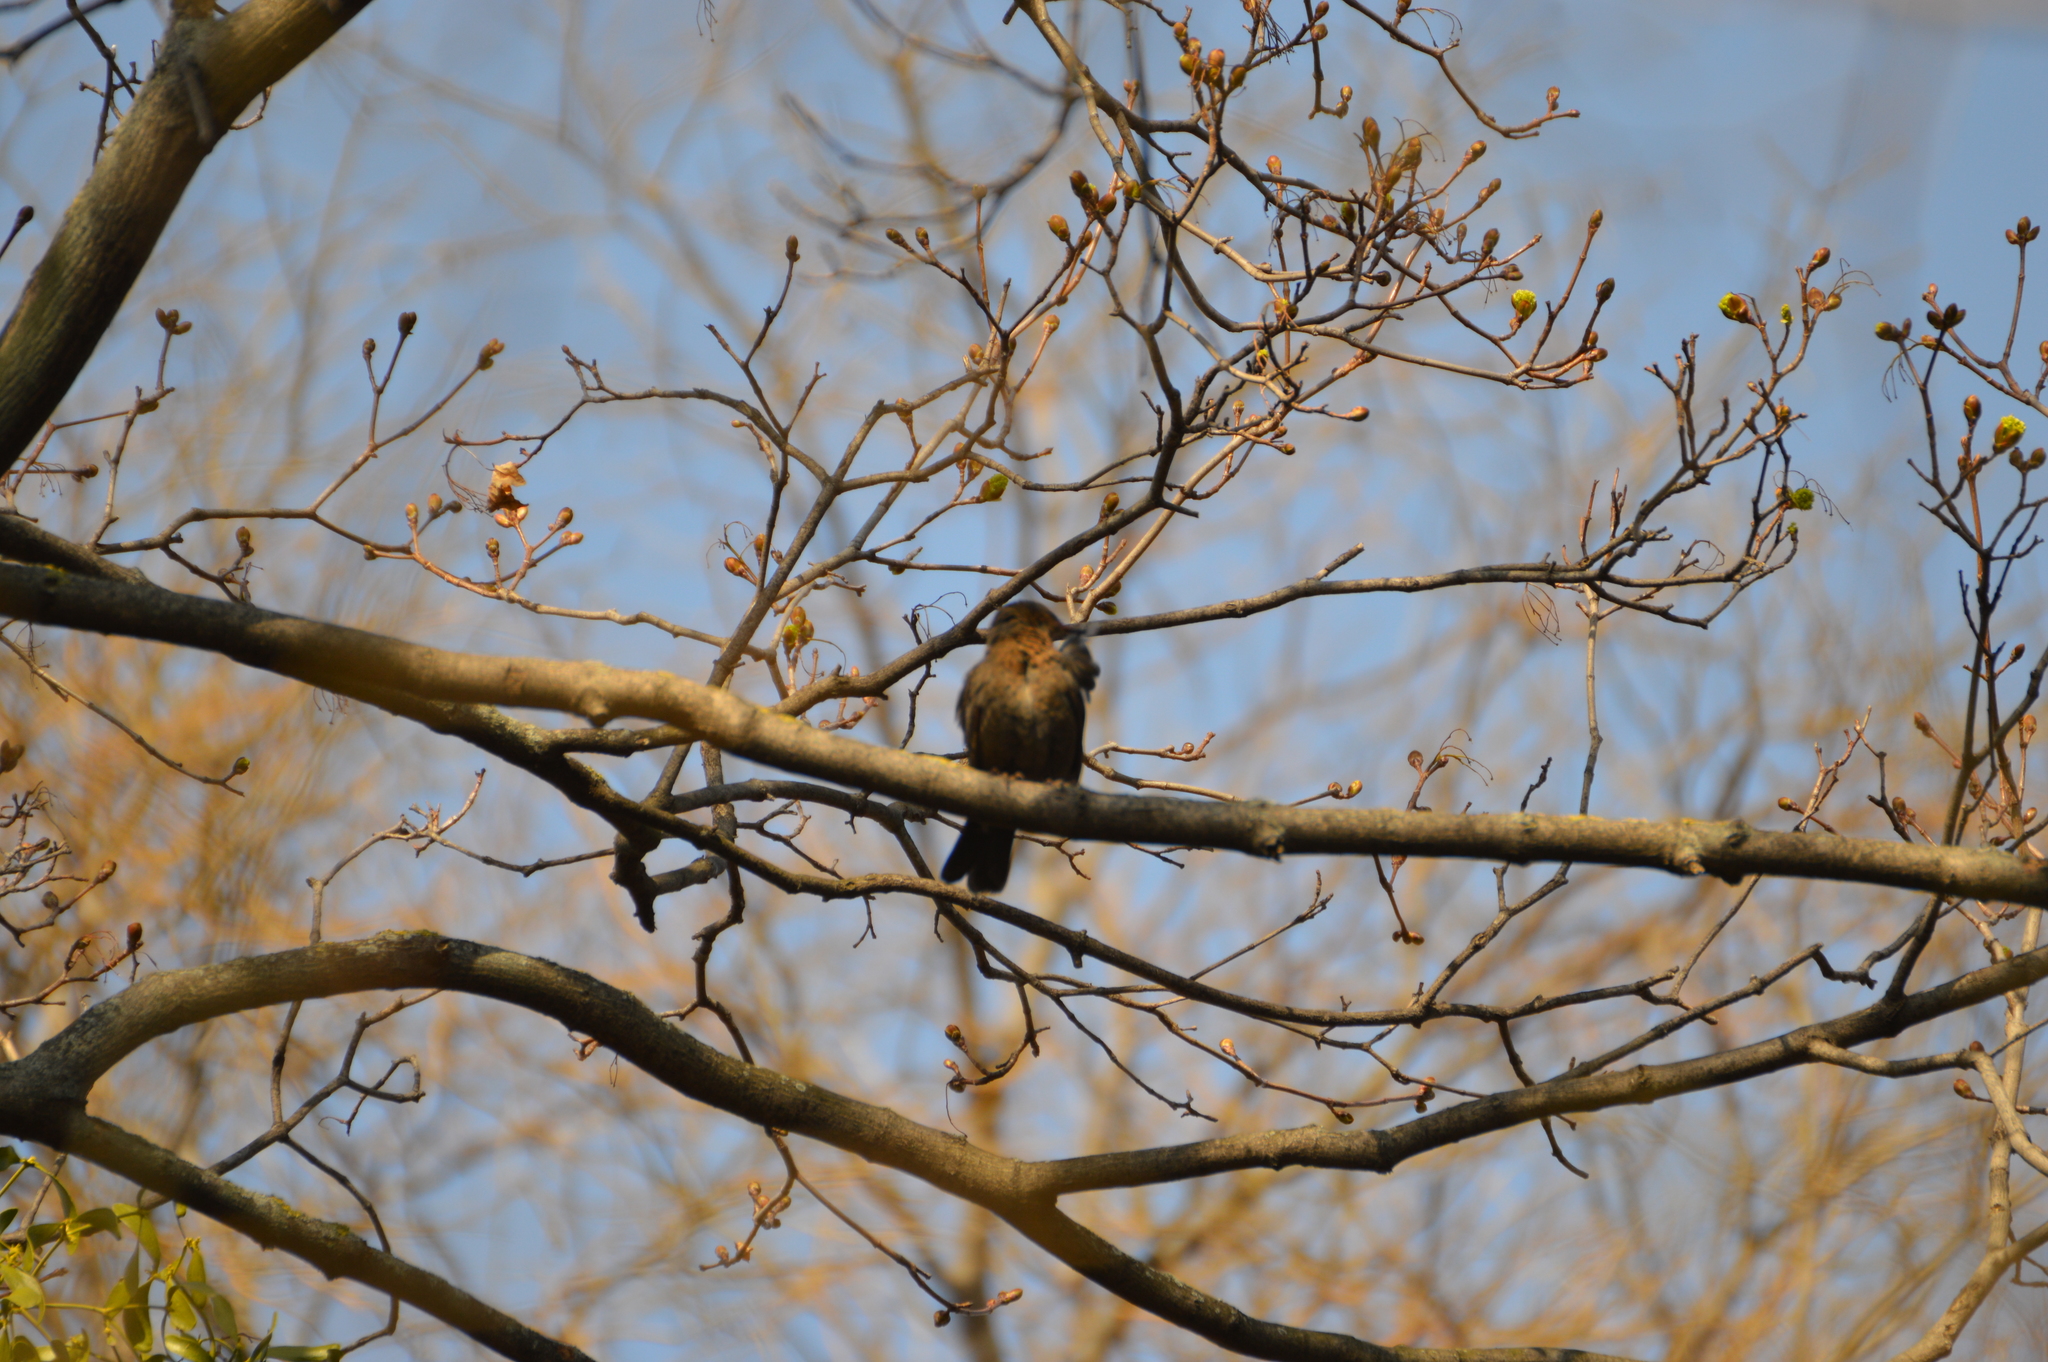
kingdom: Animalia
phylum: Chordata
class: Aves
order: Passeriformes
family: Turdidae
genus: Turdus
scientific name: Turdus merula
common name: Common blackbird
